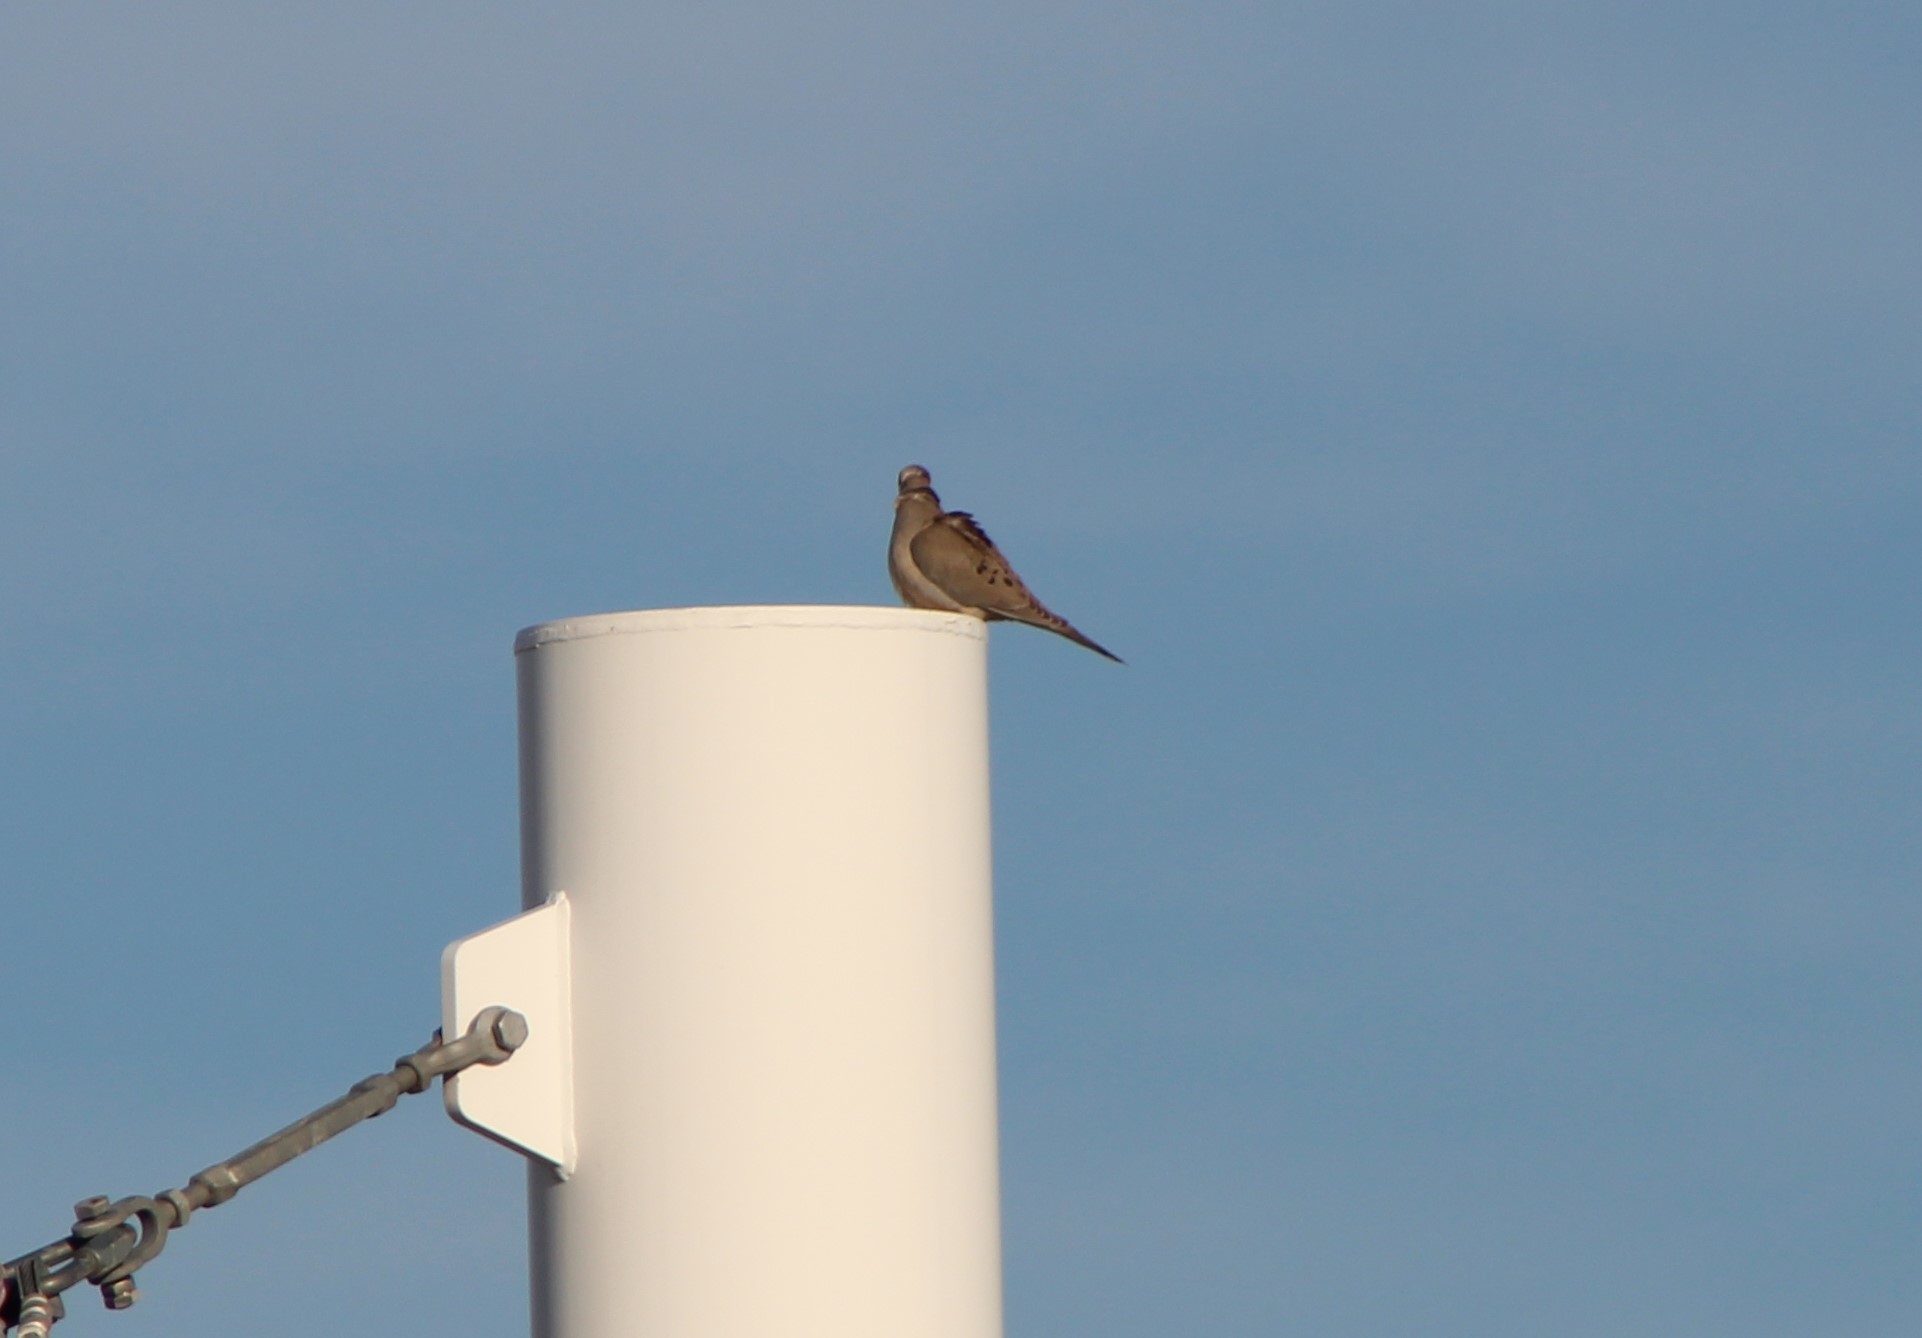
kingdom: Animalia
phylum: Chordata
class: Aves
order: Columbiformes
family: Columbidae
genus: Zenaida
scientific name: Zenaida macroura
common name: Mourning dove
